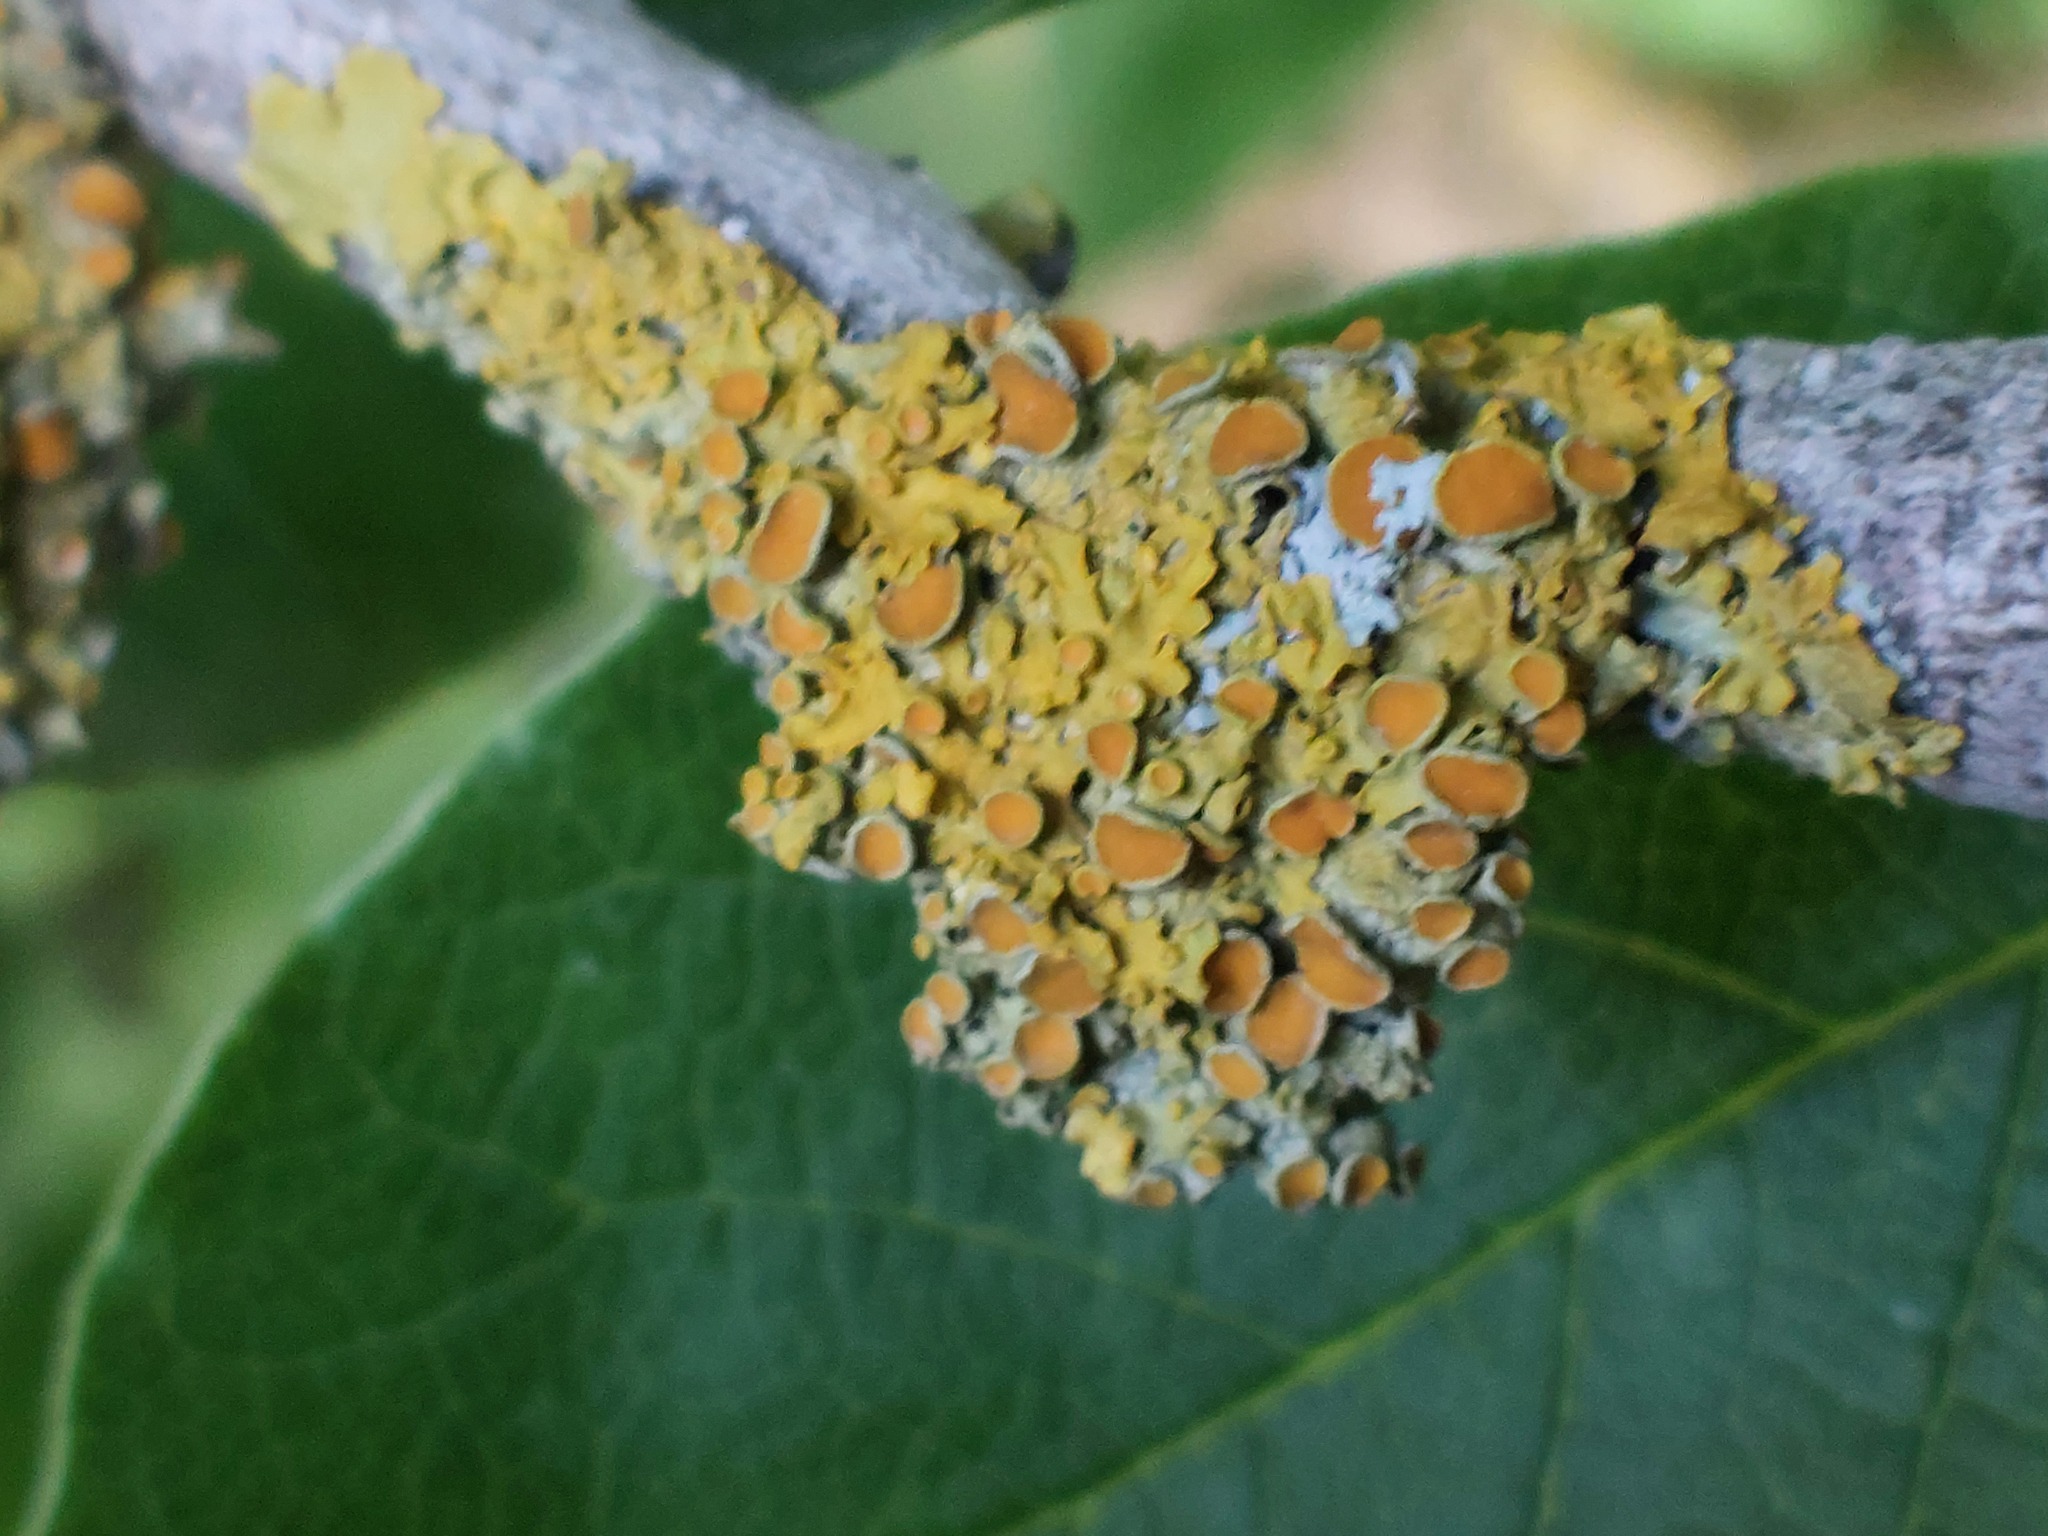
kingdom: Fungi
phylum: Ascomycota
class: Lecanoromycetes
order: Teloschistales
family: Teloschistaceae
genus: Xanthoria
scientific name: Xanthoria parietina
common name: Common orange lichen
